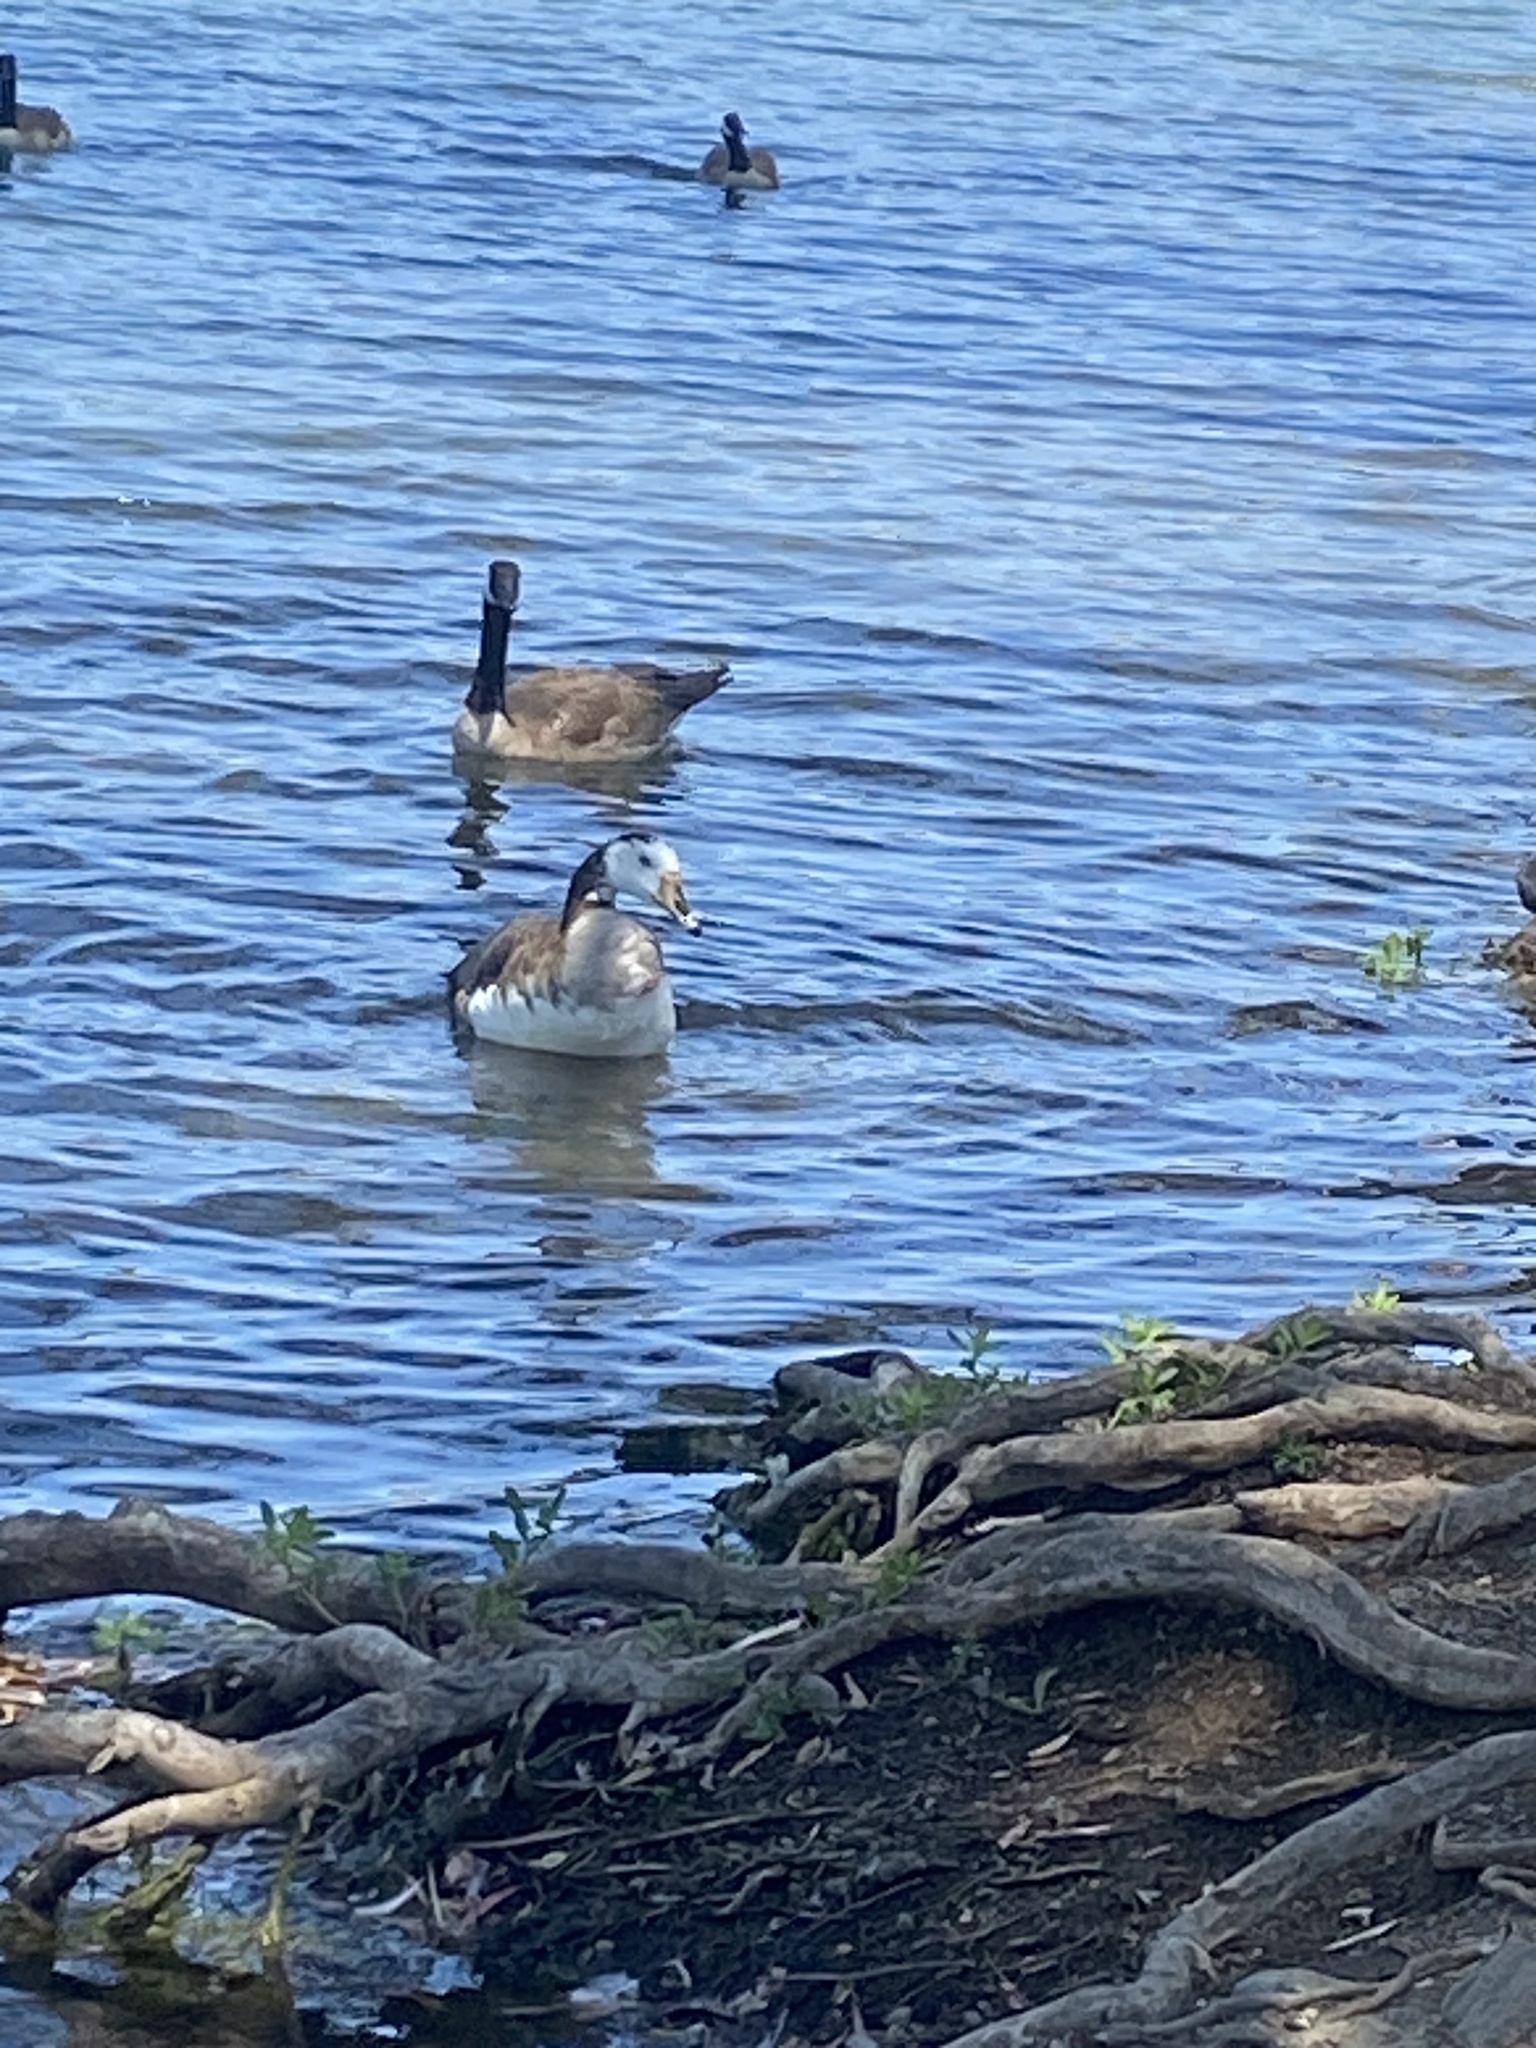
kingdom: Animalia
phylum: Chordata
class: Aves
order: Anseriformes
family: Anatidae
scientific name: Anatidae
